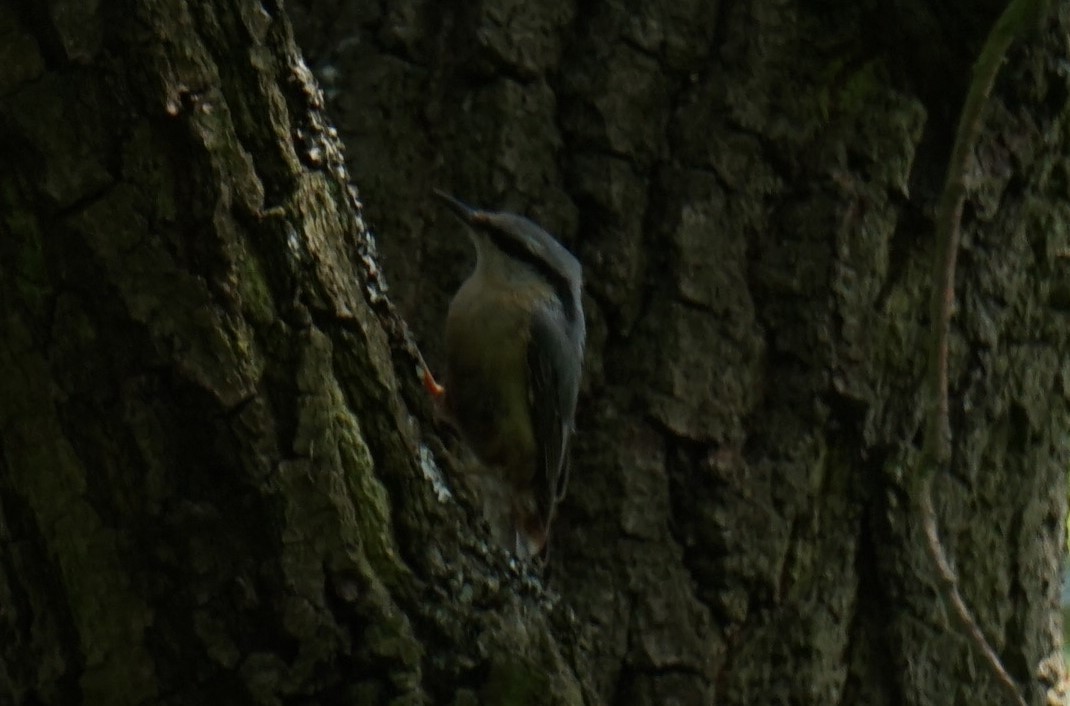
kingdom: Animalia
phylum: Chordata
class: Aves
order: Passeriformes
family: Sittidae
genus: Sitta
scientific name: Sitta europaea
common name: Eurasian nuthatch
